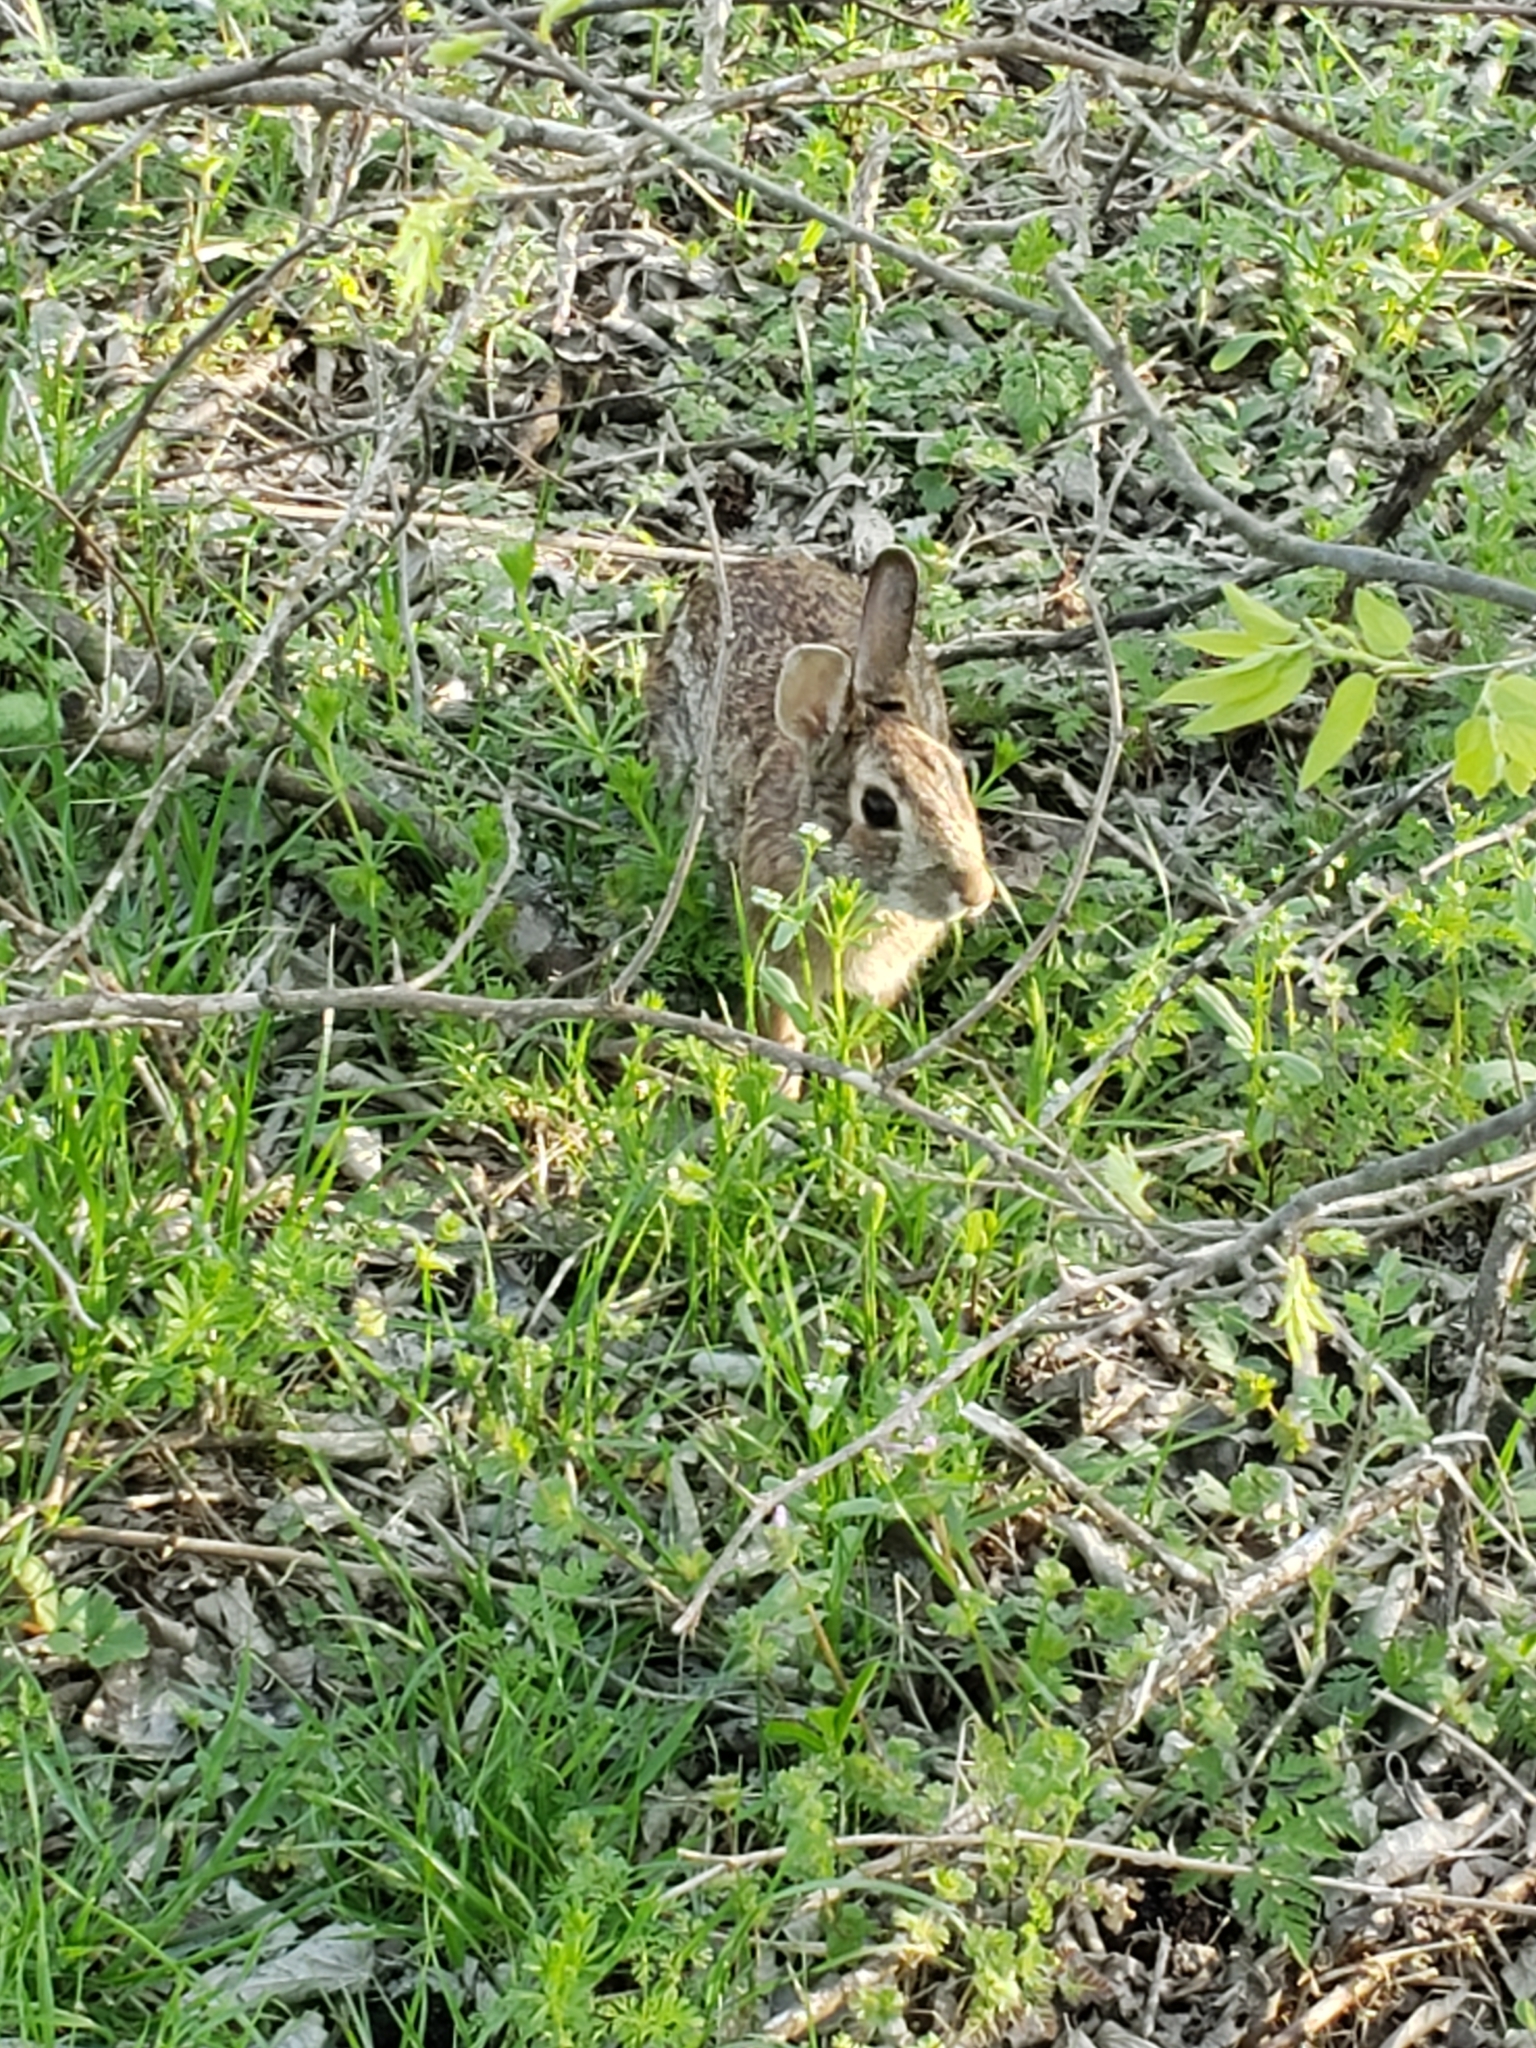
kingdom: Animalia
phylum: Chordata
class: Mammalia
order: Lagomorpha
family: Leporidae
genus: Sylvilagus
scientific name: Sylvilagus floridanus
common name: Eastern cottontail
